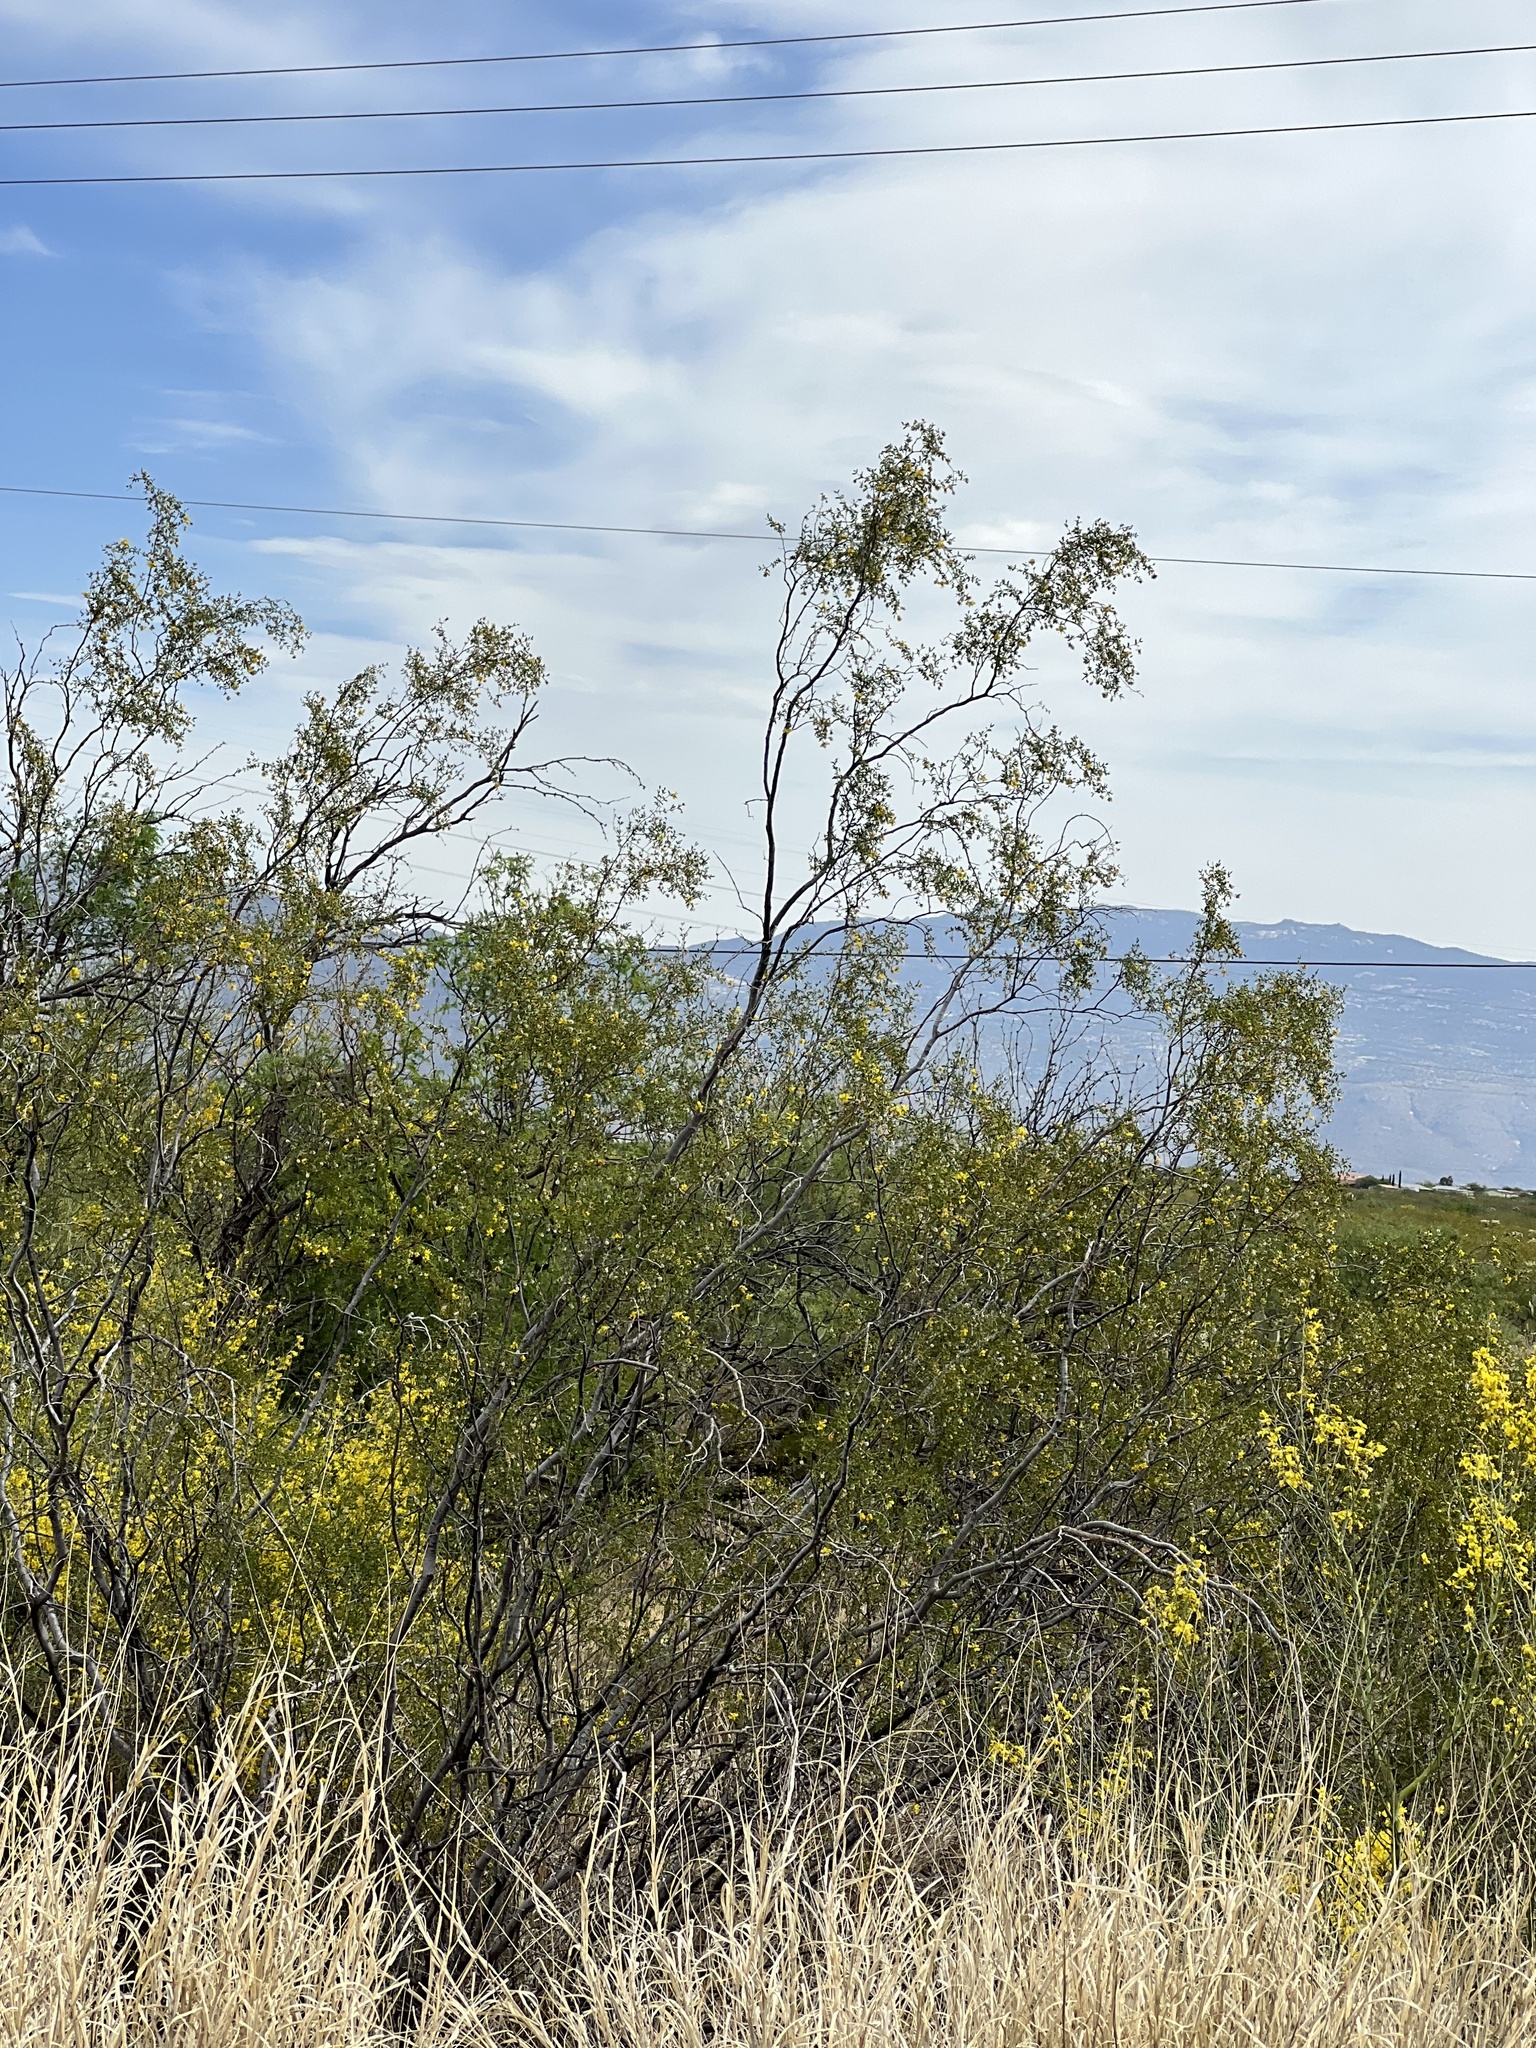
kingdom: Plantae
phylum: Tracheophyta
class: Magnoliopsida
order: Zygophyllales
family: Zygophyllaceae
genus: Larrea
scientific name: Larrea tridentata
